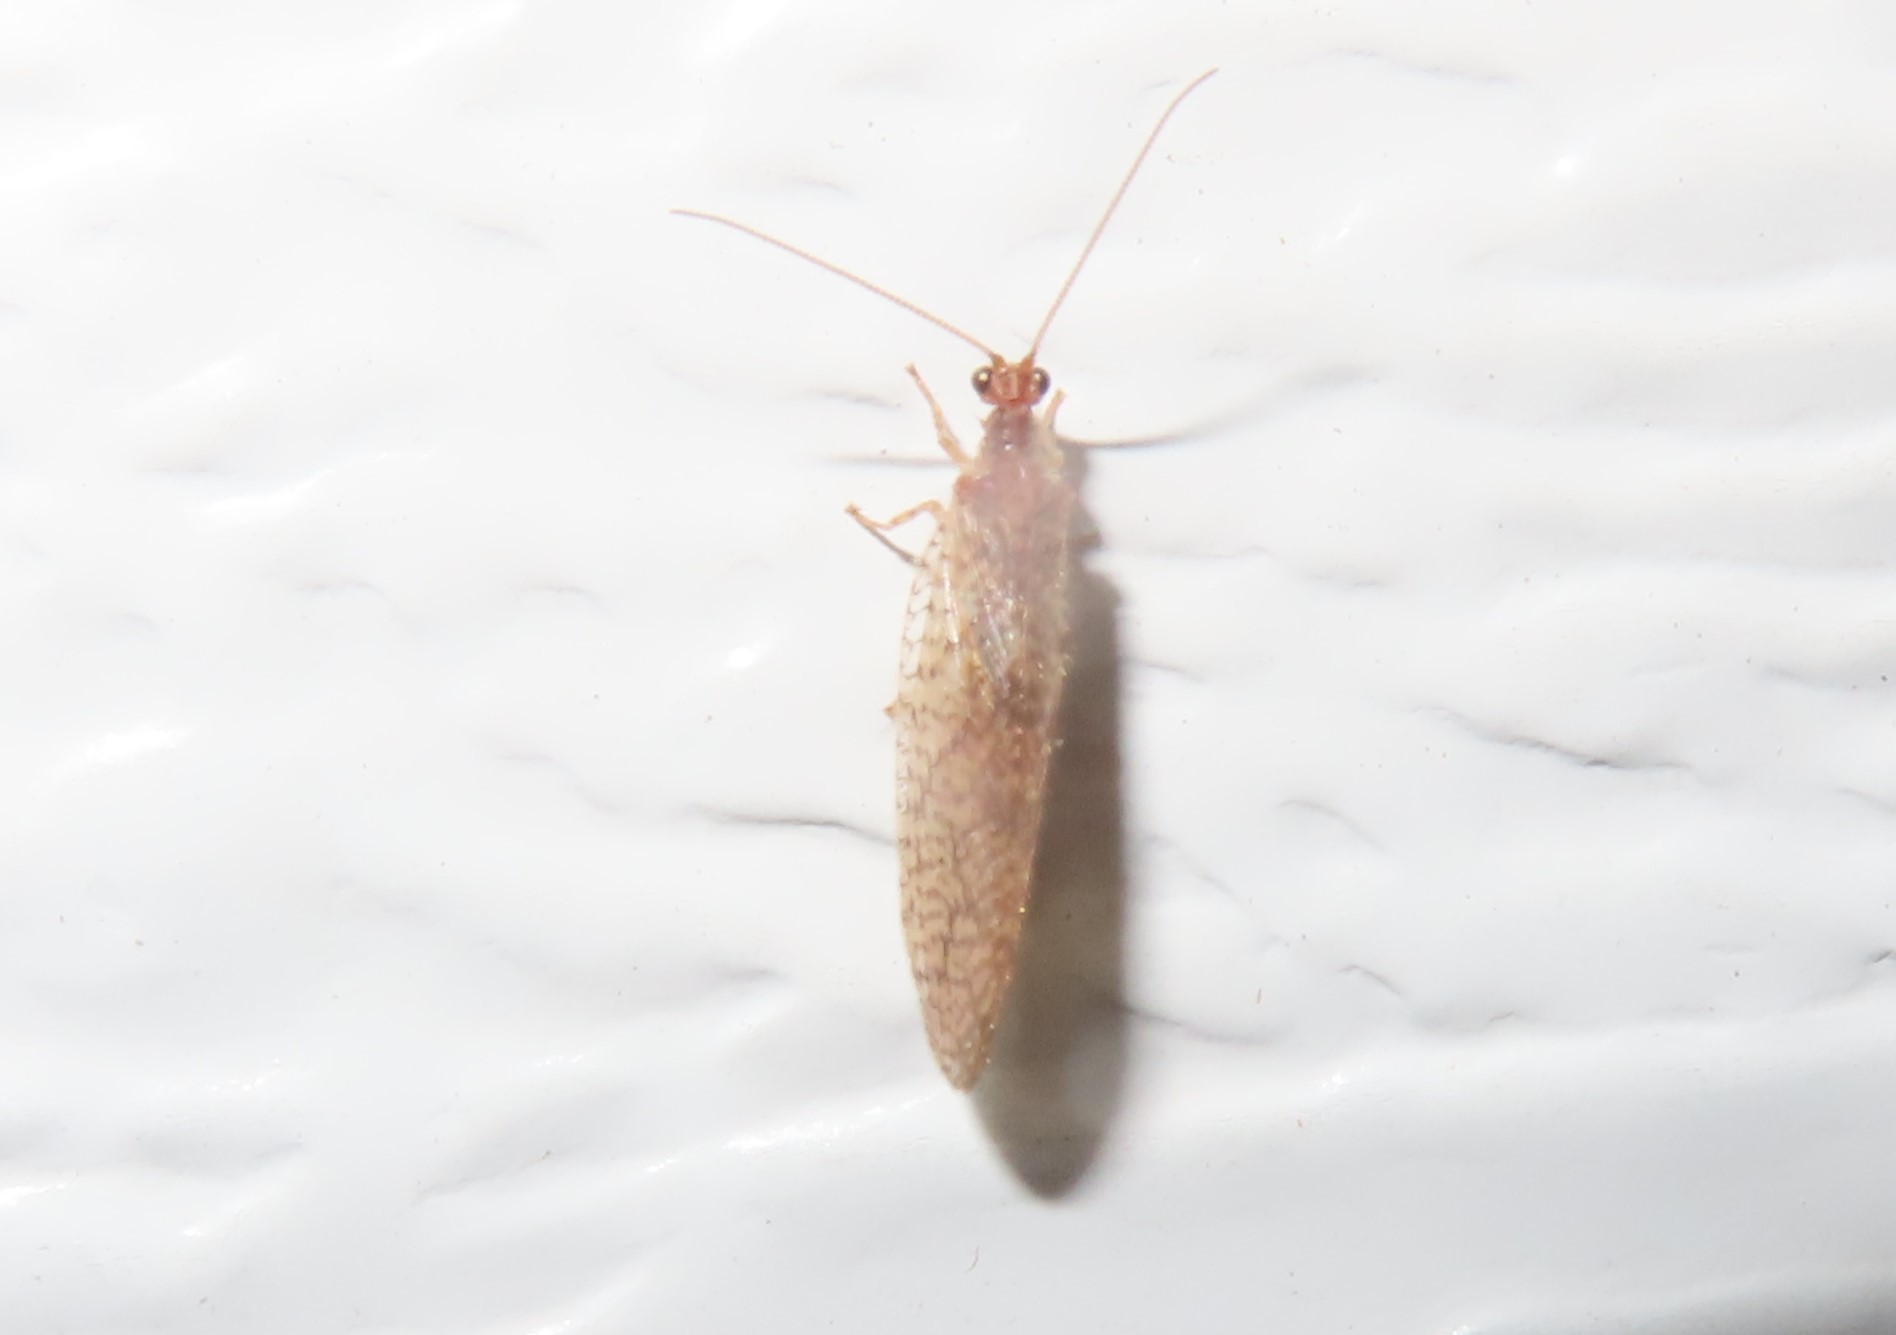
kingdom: Animalia
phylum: Arthropoda
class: Insecta
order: Neuroptera
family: Hemerobiidae
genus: Micromus
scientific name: Micromus posticus
